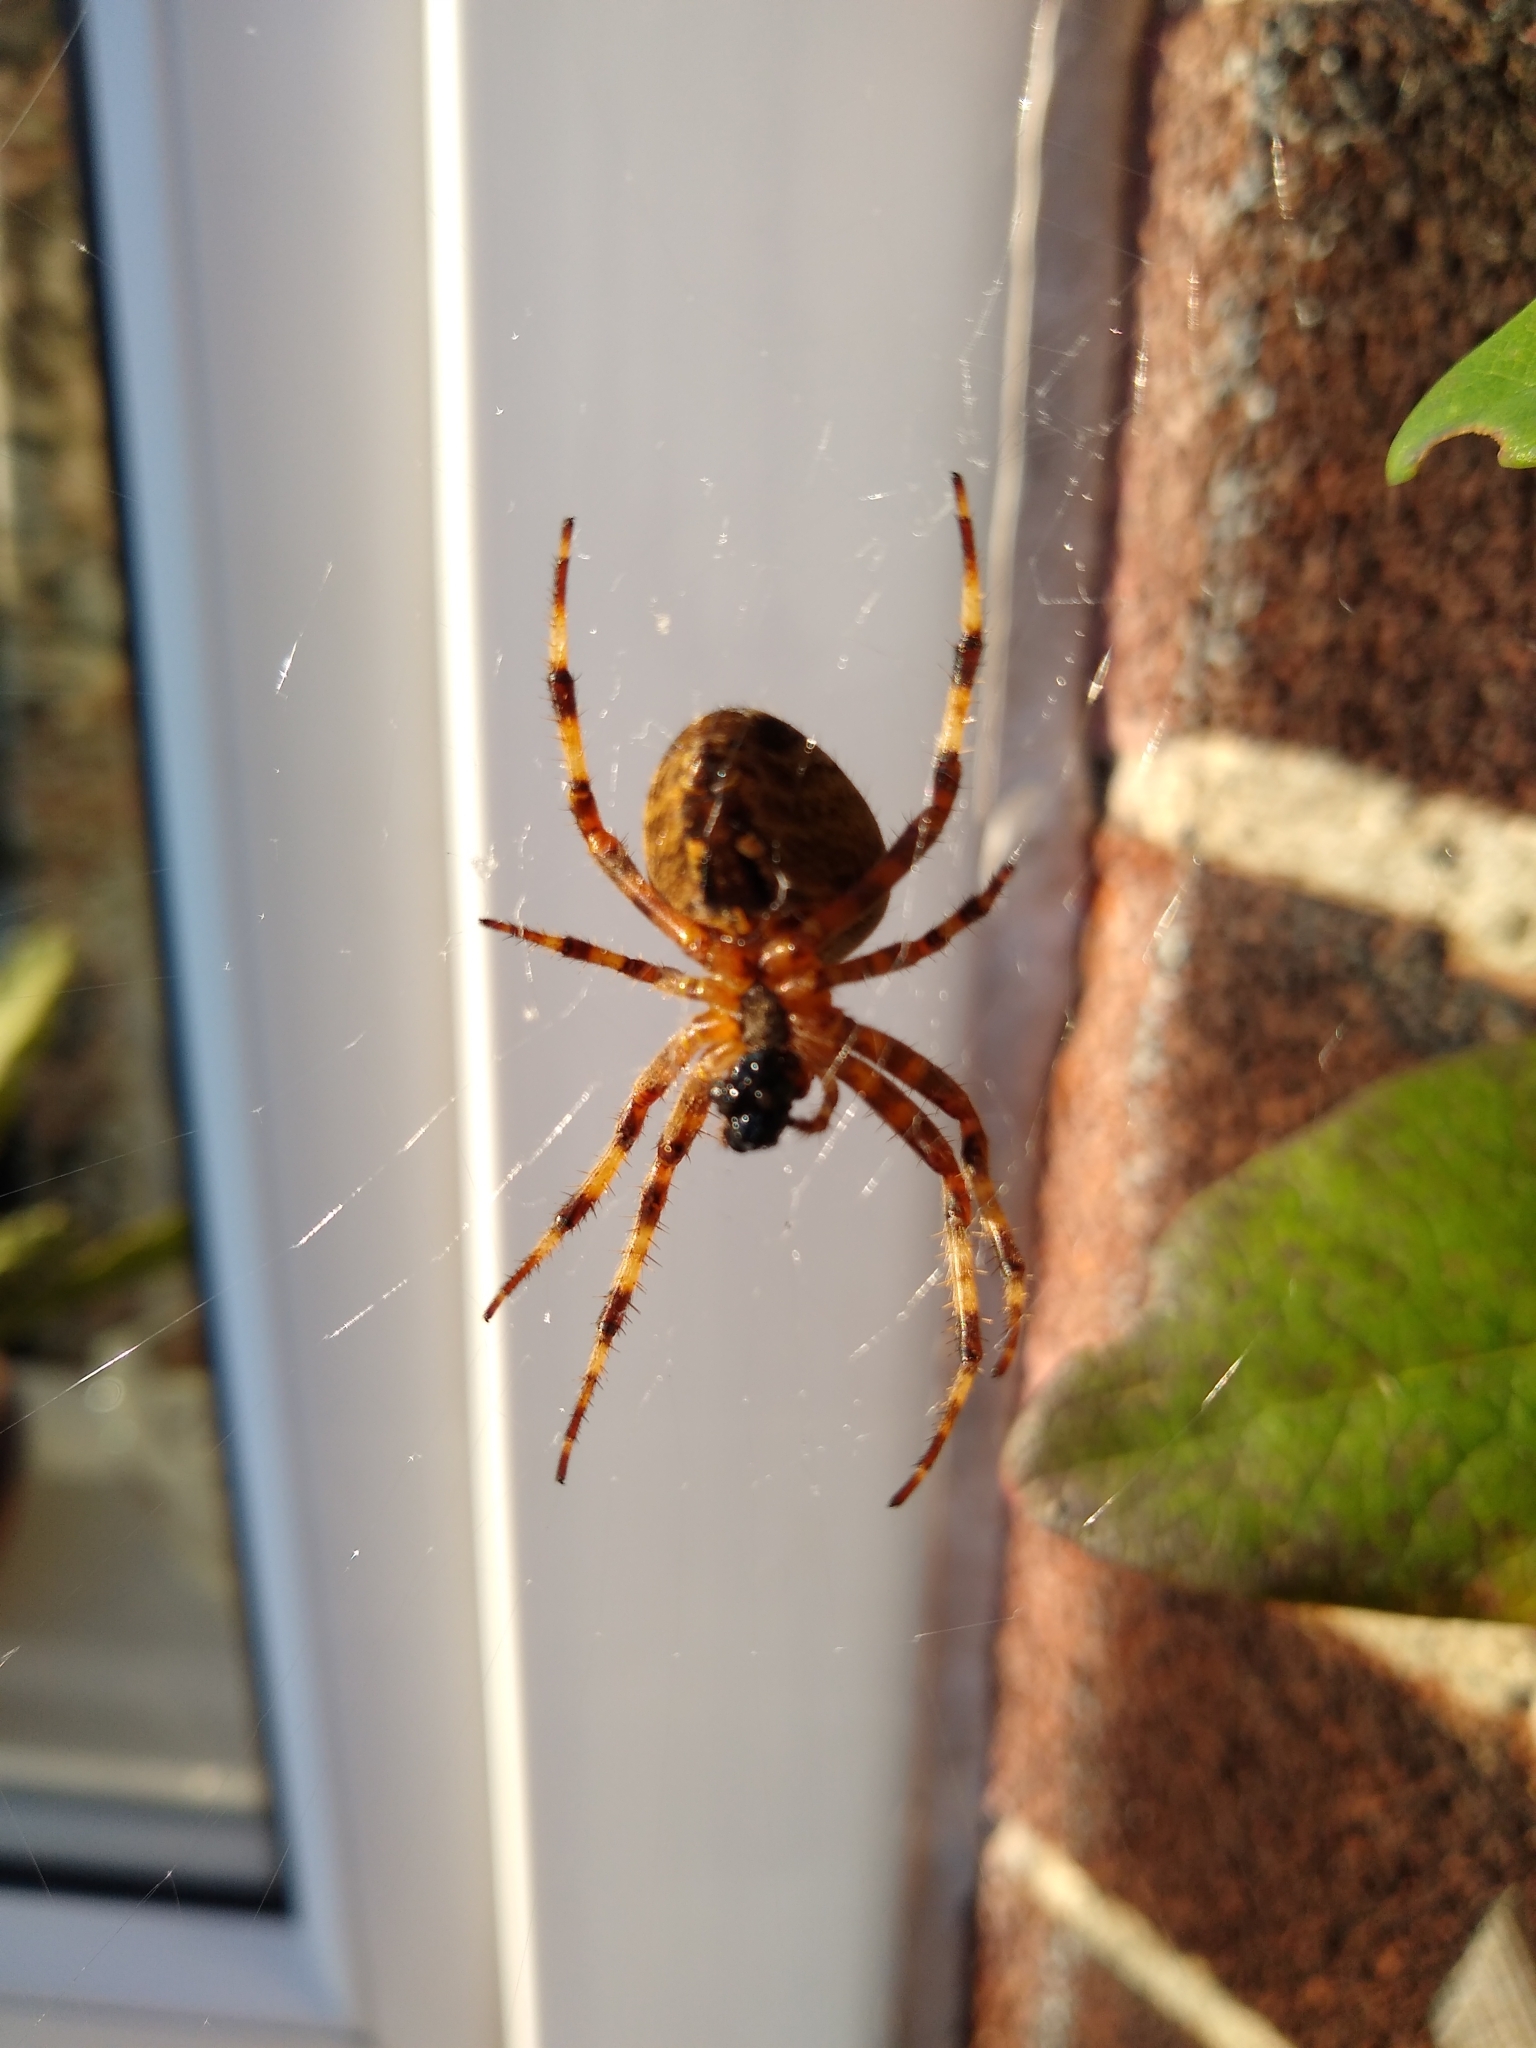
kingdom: Animalia
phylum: Arthropoda
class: Arachnida
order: Araneae
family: Araneidae
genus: Araneus
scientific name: Araneus diadematus
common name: Cross orbweaver
